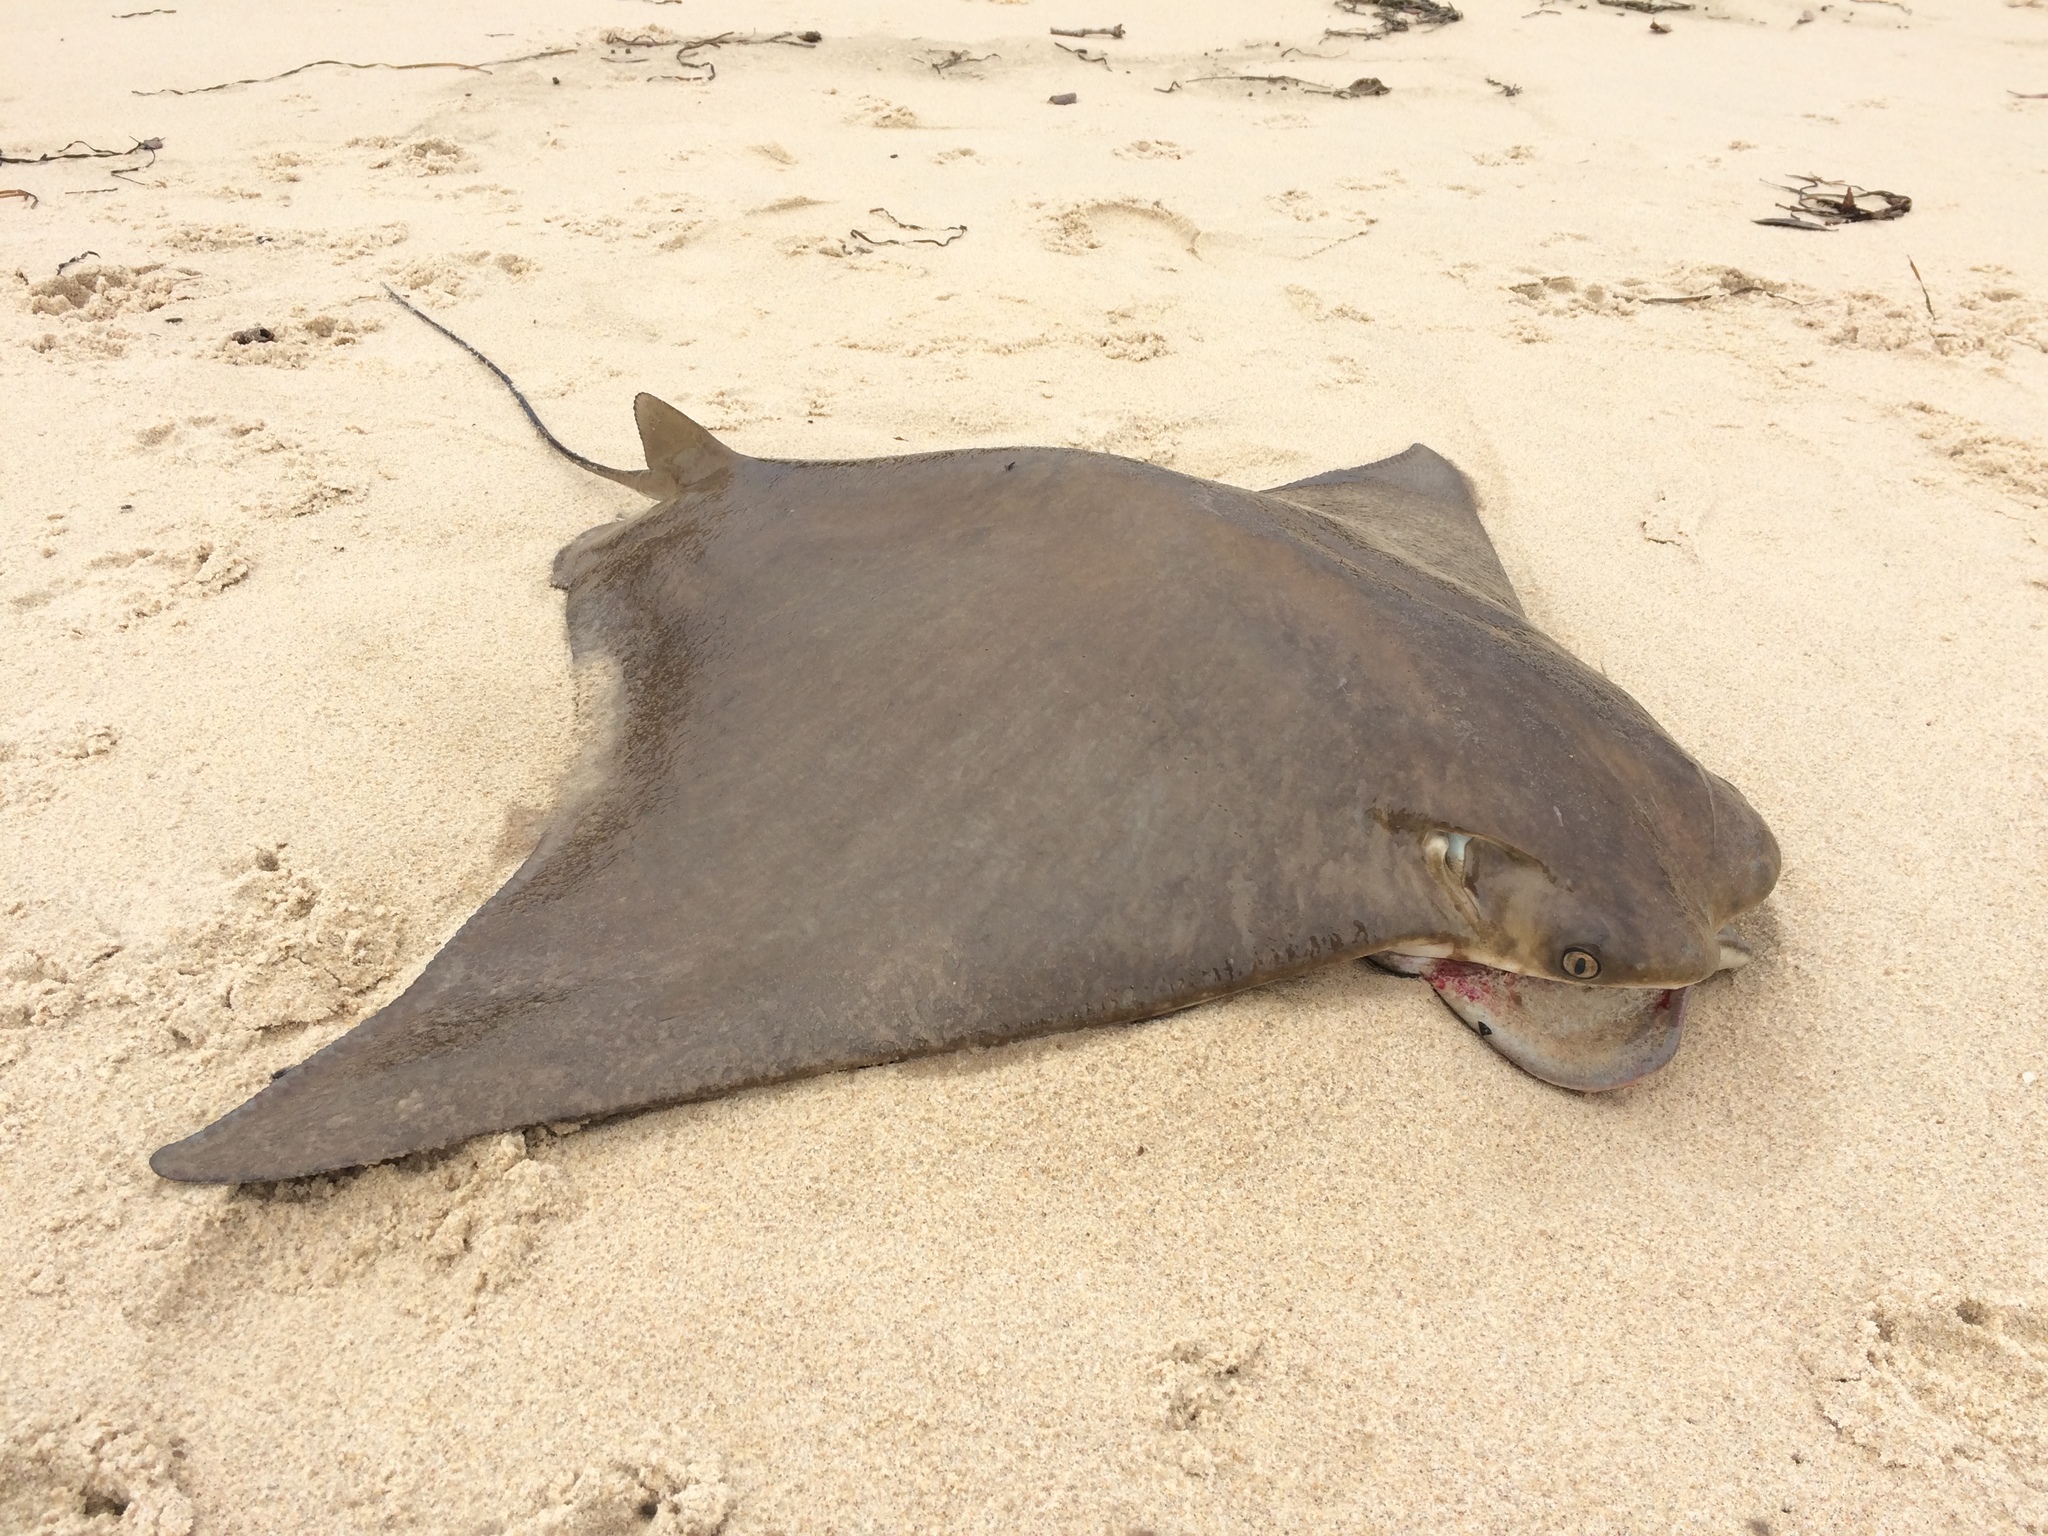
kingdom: Animalia
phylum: Chordata
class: Elasmobranchii
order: Myliobatiformes
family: Myliobatidae
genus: Rhinoptera
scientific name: Rhinoptera neglecta
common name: Australian cownose ray
